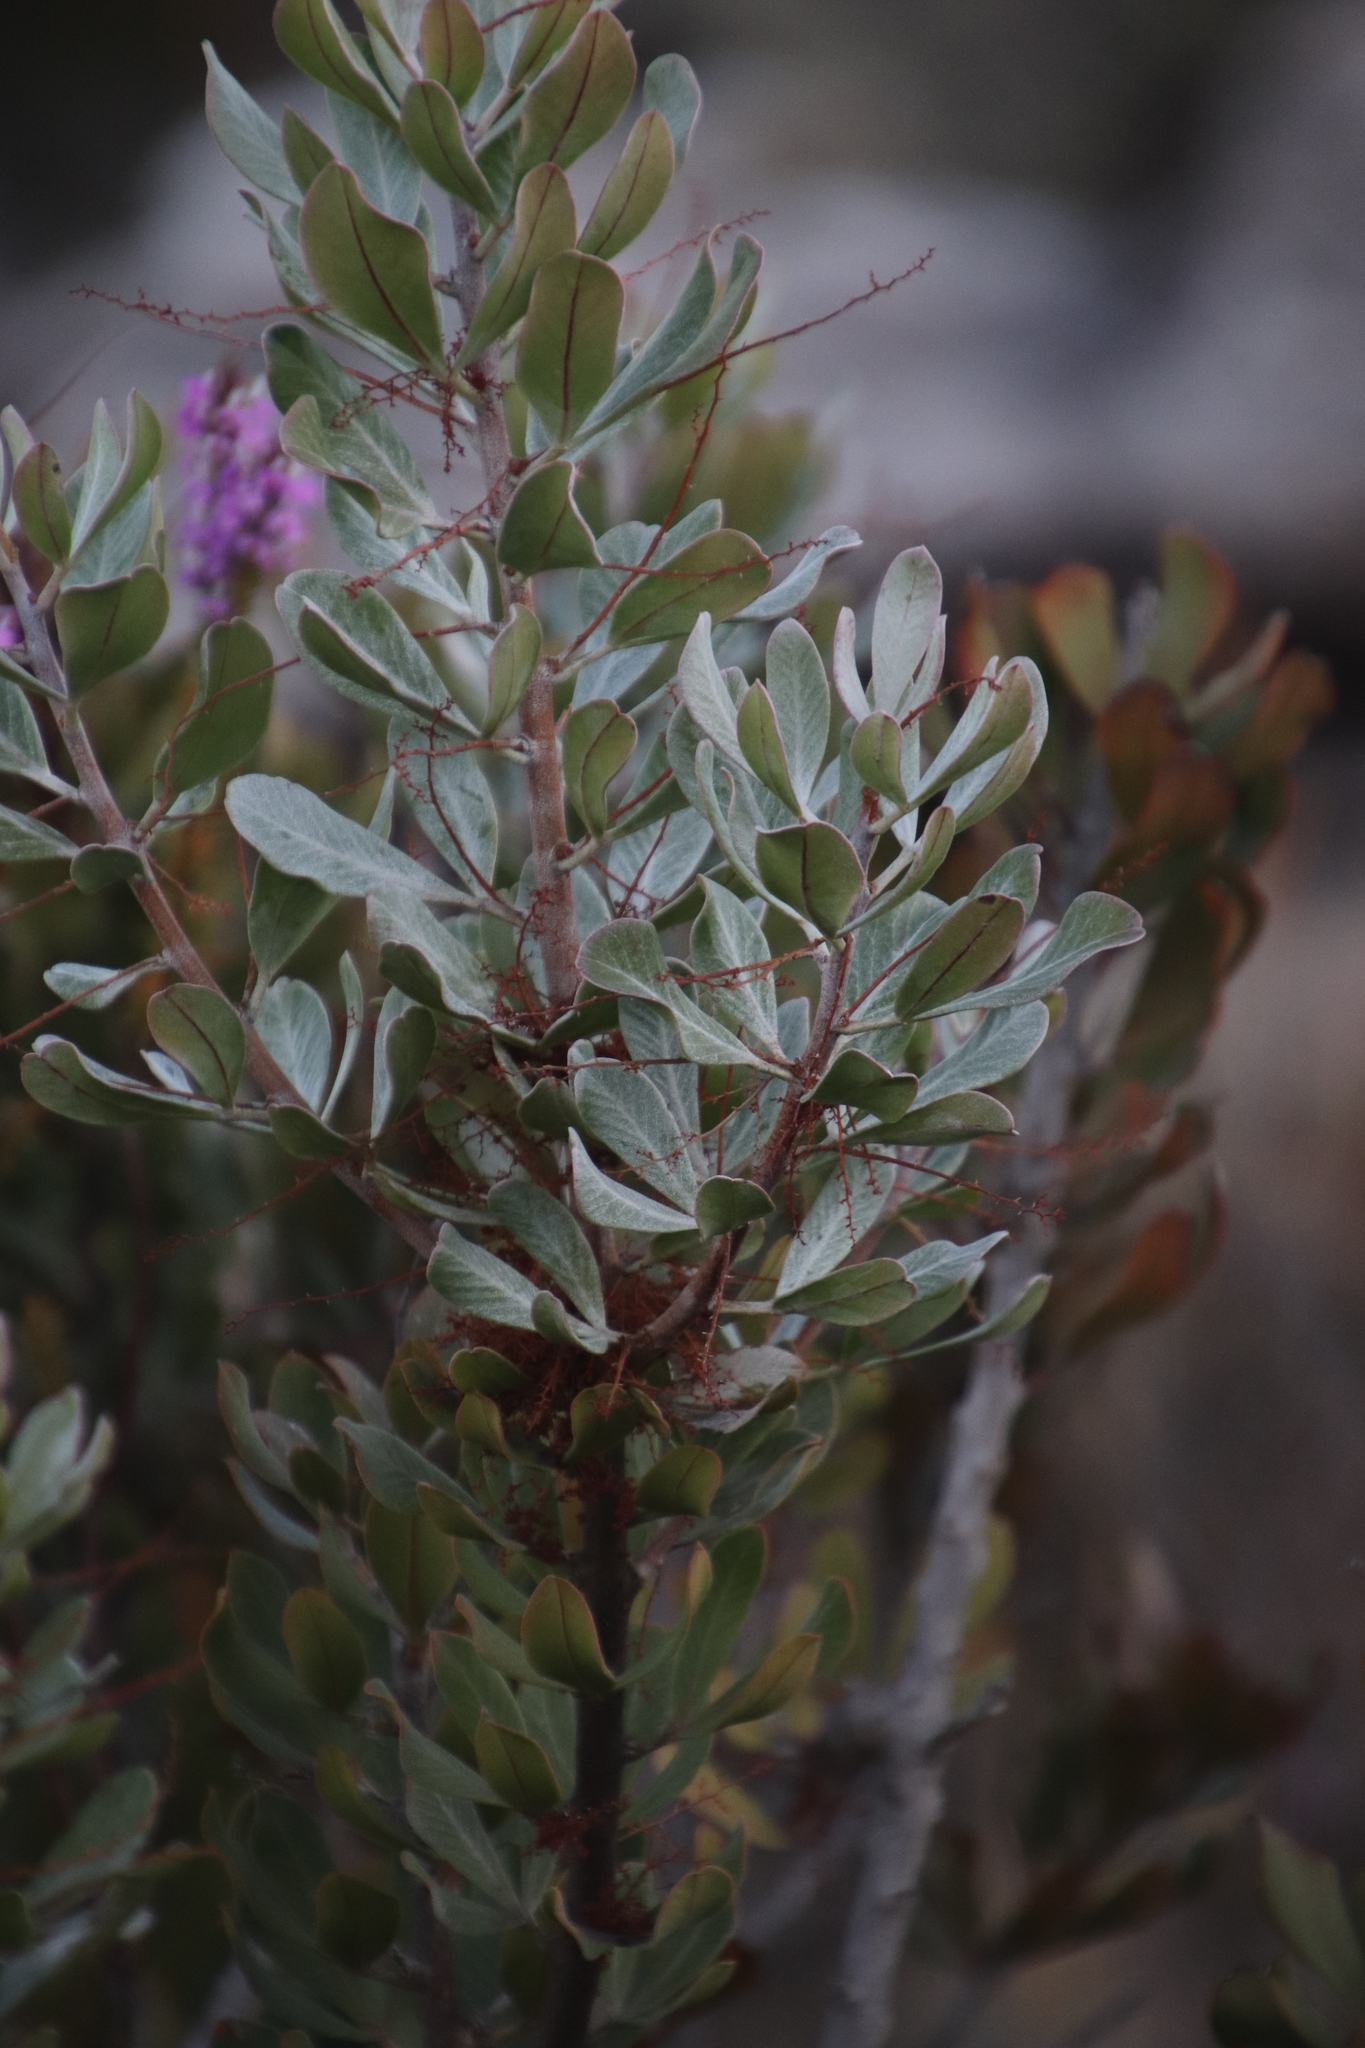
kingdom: Plantae
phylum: Tracheophyta
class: Magnoliopsida
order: Sapindales
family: Anacardiaceae
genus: Searsia
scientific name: Searsia scytophylla
